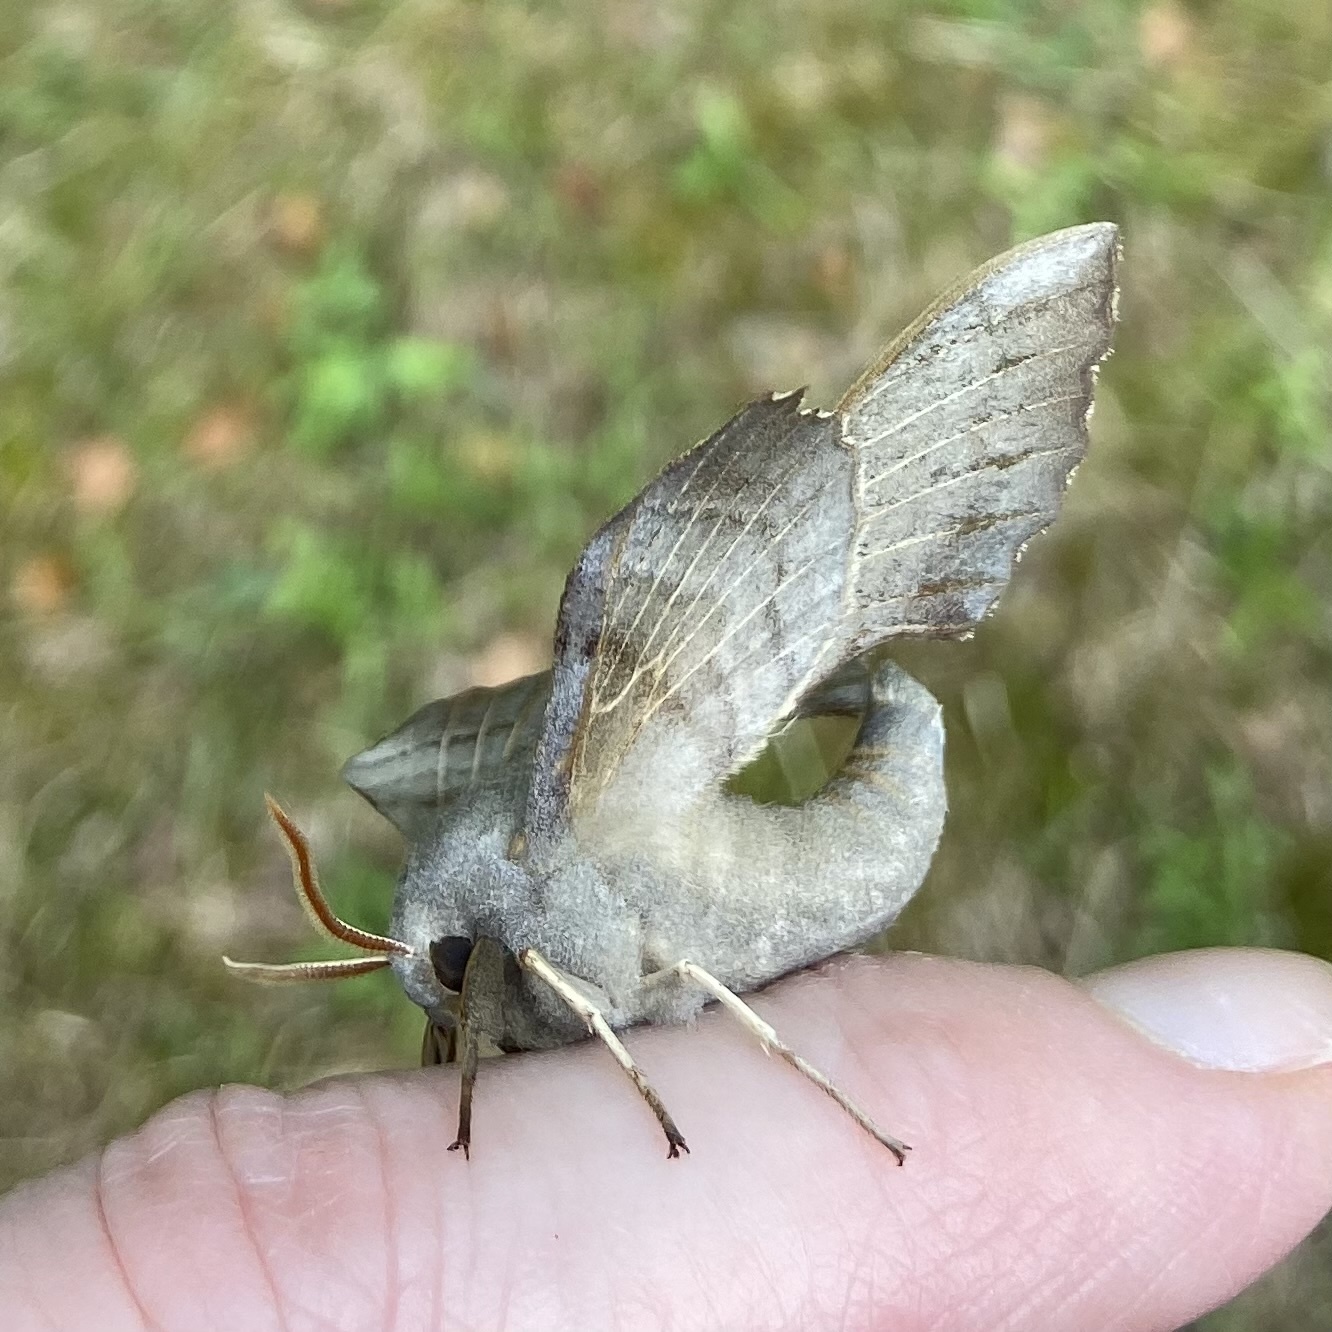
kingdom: Animalia
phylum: Arthropoda
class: Insecta
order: Lepidoptera
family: Sphingidae
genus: Laothoe
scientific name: Laothoe populi
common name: Poplar hawk-moth
